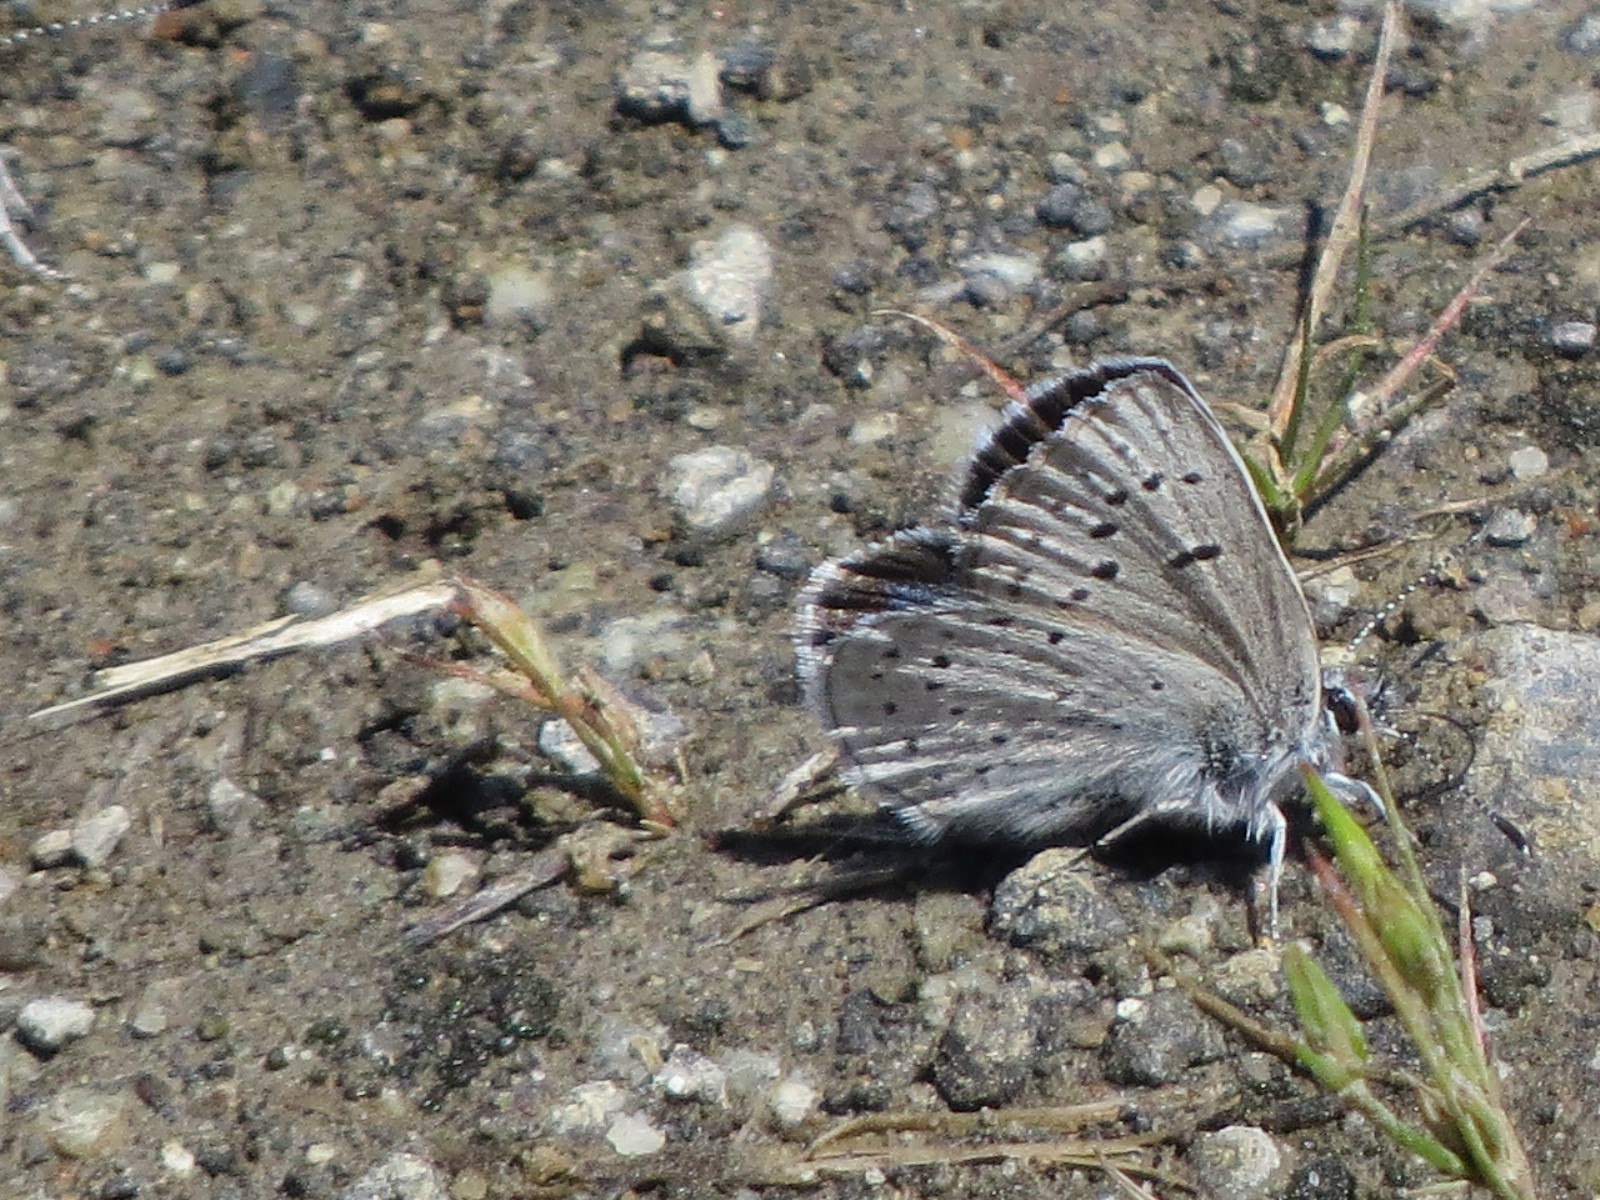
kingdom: Animalia
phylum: Arthropoda
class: Insecta
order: Lepidoptera
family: Lycaenidae
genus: Icaricia
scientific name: Icaricia icarioides
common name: Boisduval's blue
